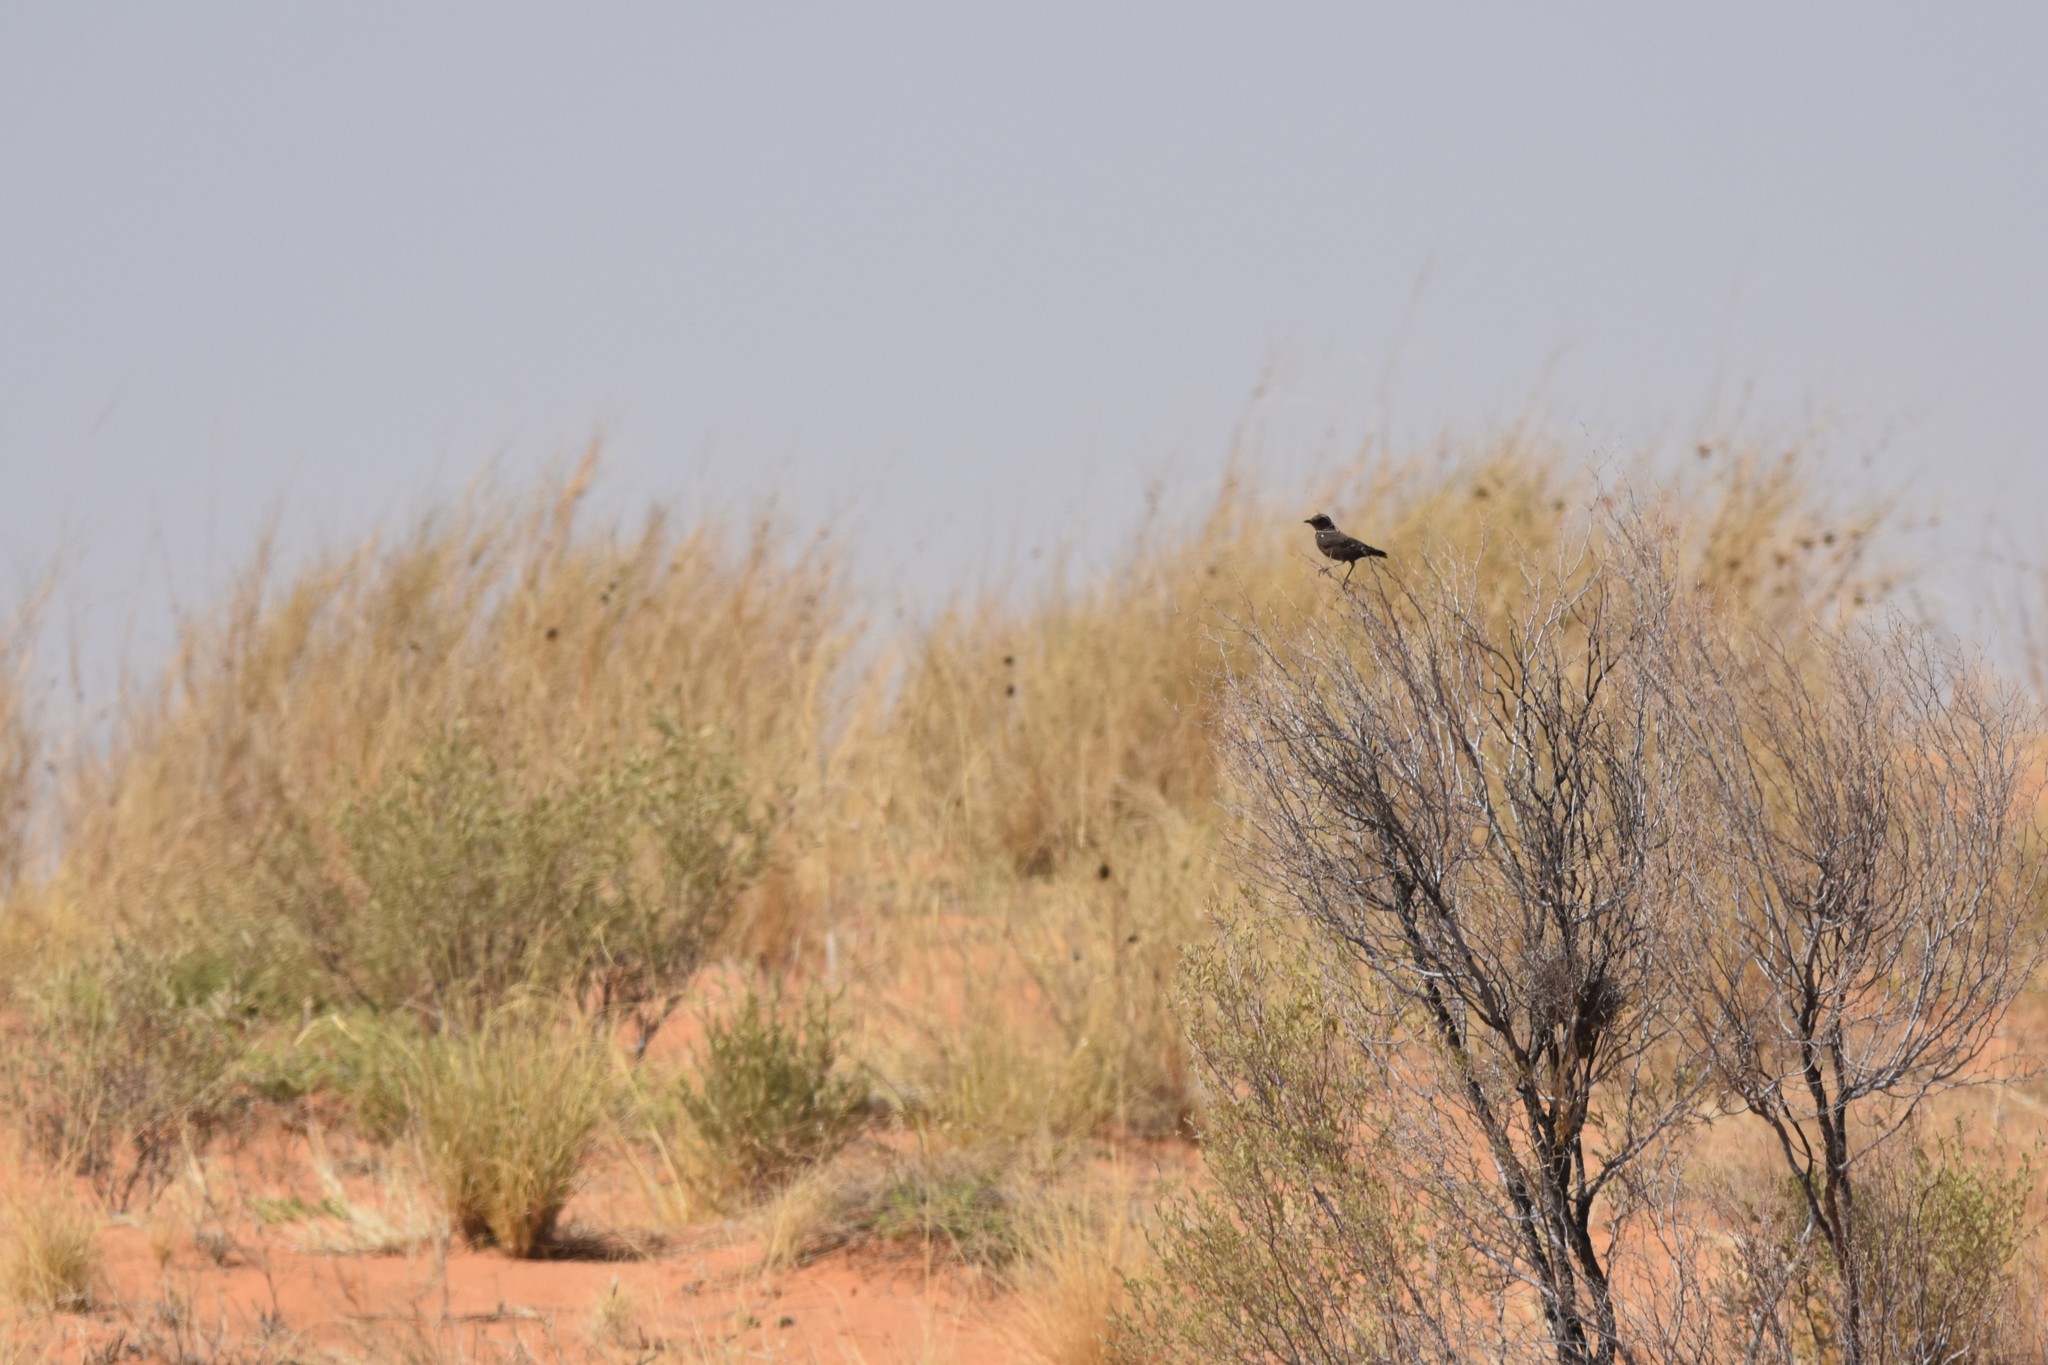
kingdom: Animalia
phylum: Chordata
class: Aves
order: Passeriformes
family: Muscicapidae
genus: Myrmecocichla
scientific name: Myrmecocichla formicivora
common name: Ant-eating chat
